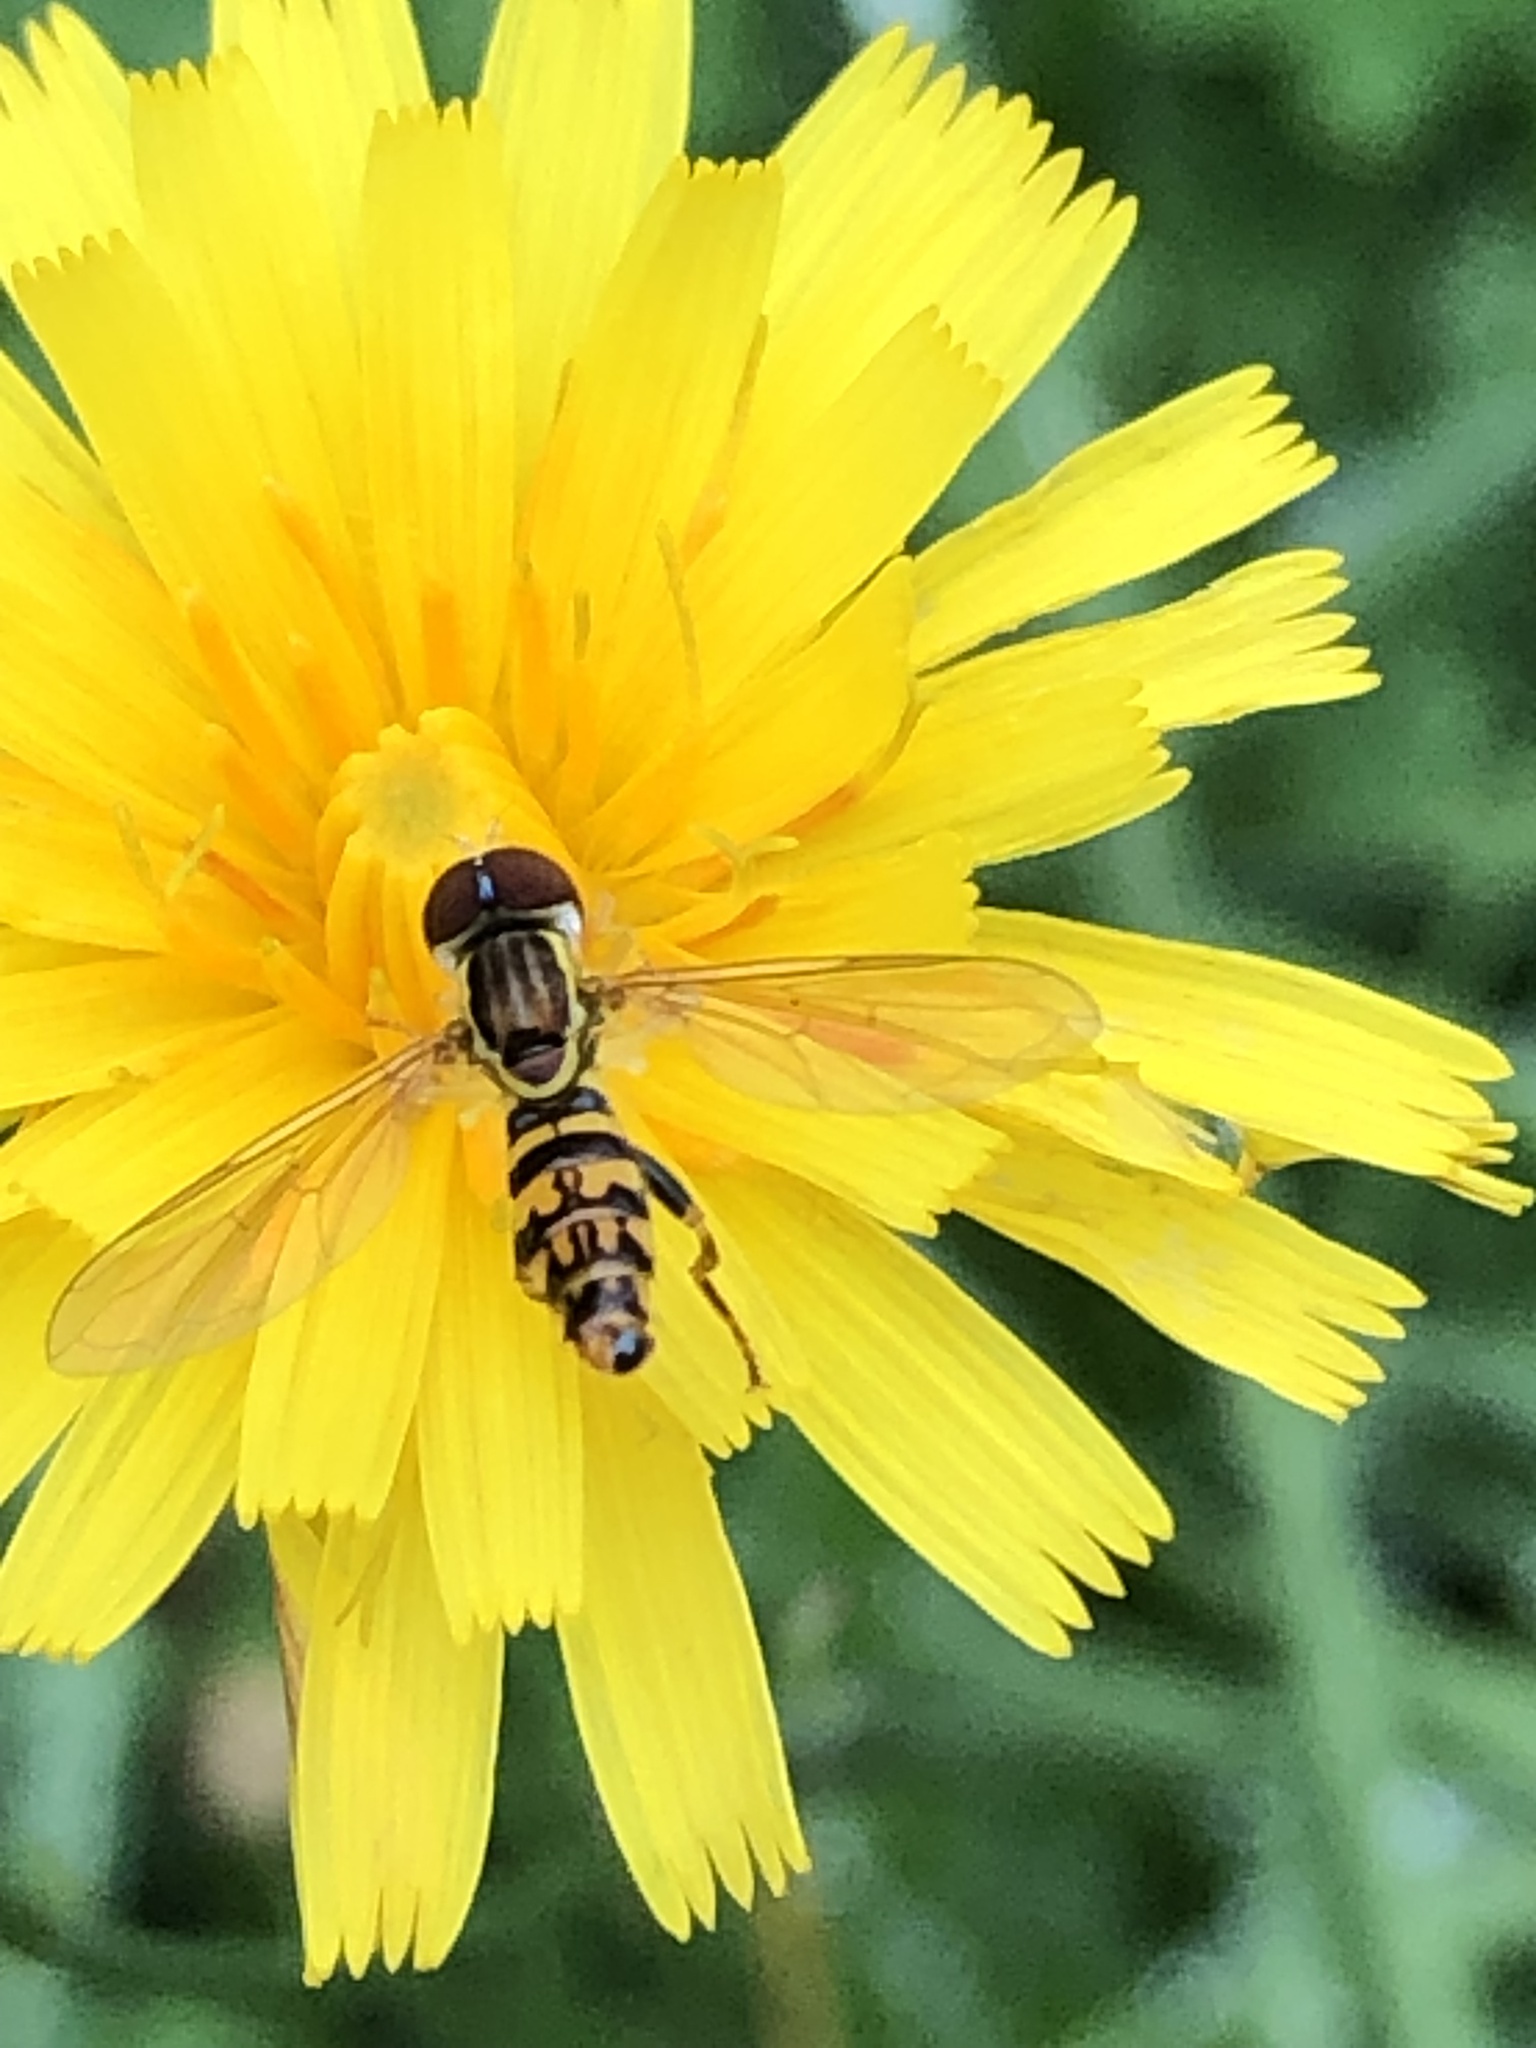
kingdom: Animalia
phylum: Arthropoda
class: Insecta
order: Diptera
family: Syrphidae
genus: Toxomerus
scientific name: Toxomerus geminatus
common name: Eastern calligrapher
